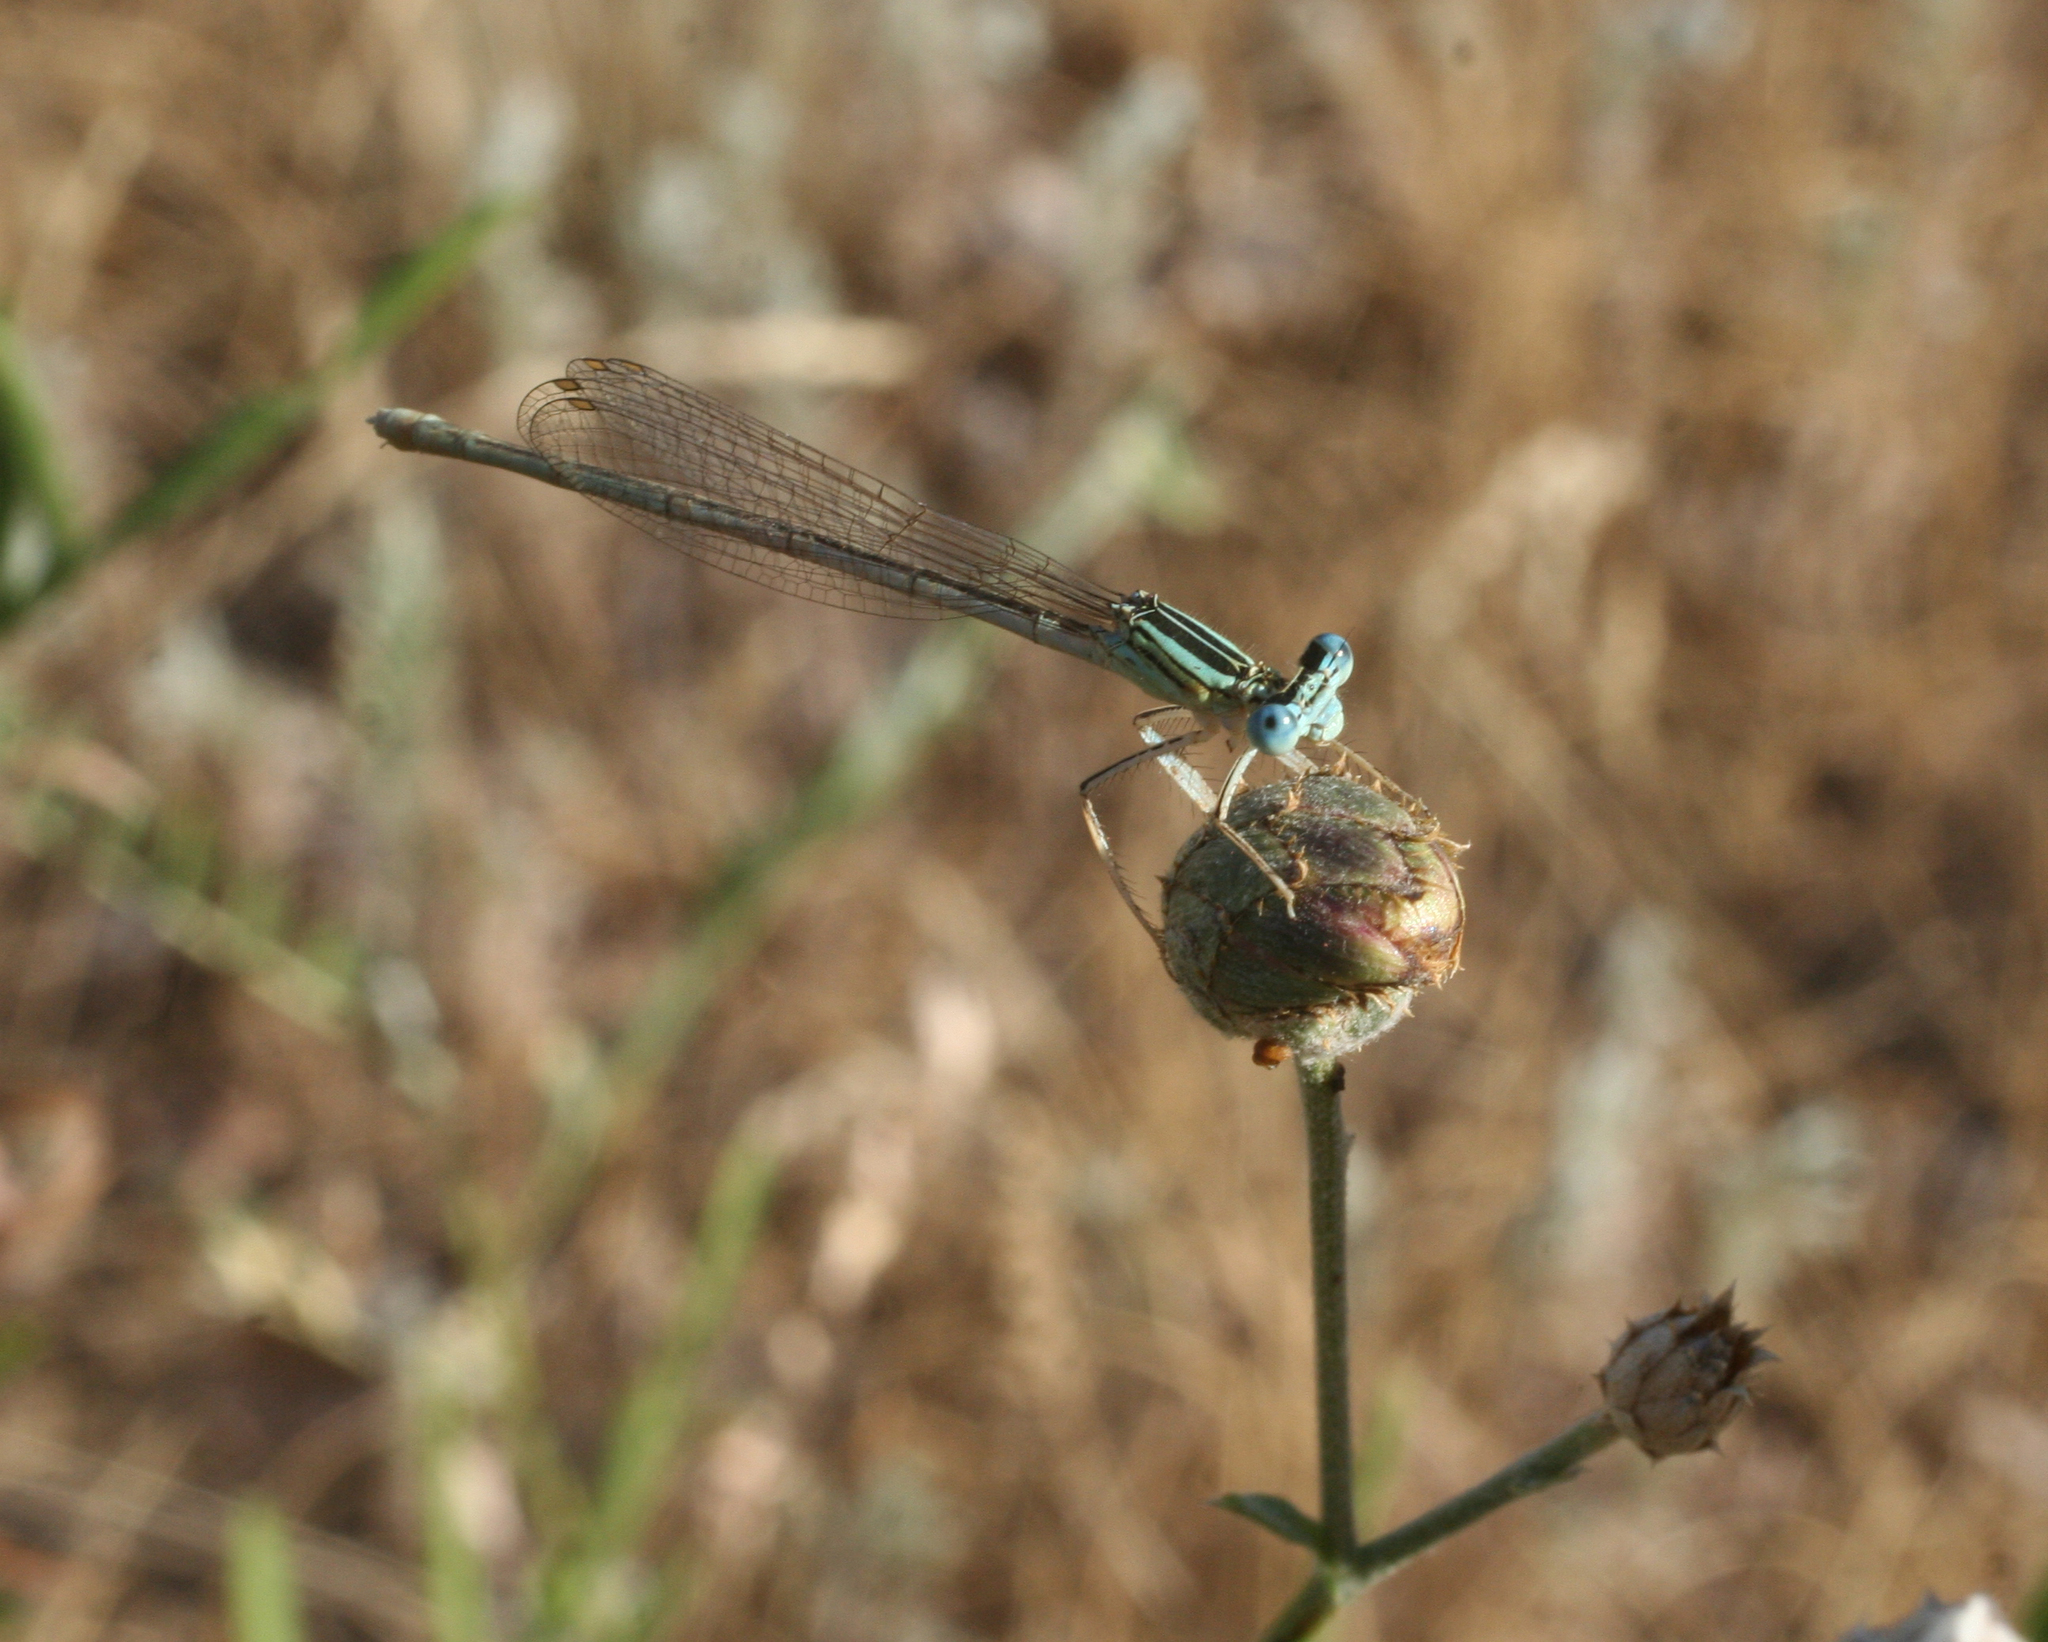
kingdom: Animalia
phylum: Arthropoda
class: Insecta
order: Odonata
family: Platycnemididae
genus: Platycnemis
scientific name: Platycnemis pennipes
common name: White-legged damselfly
